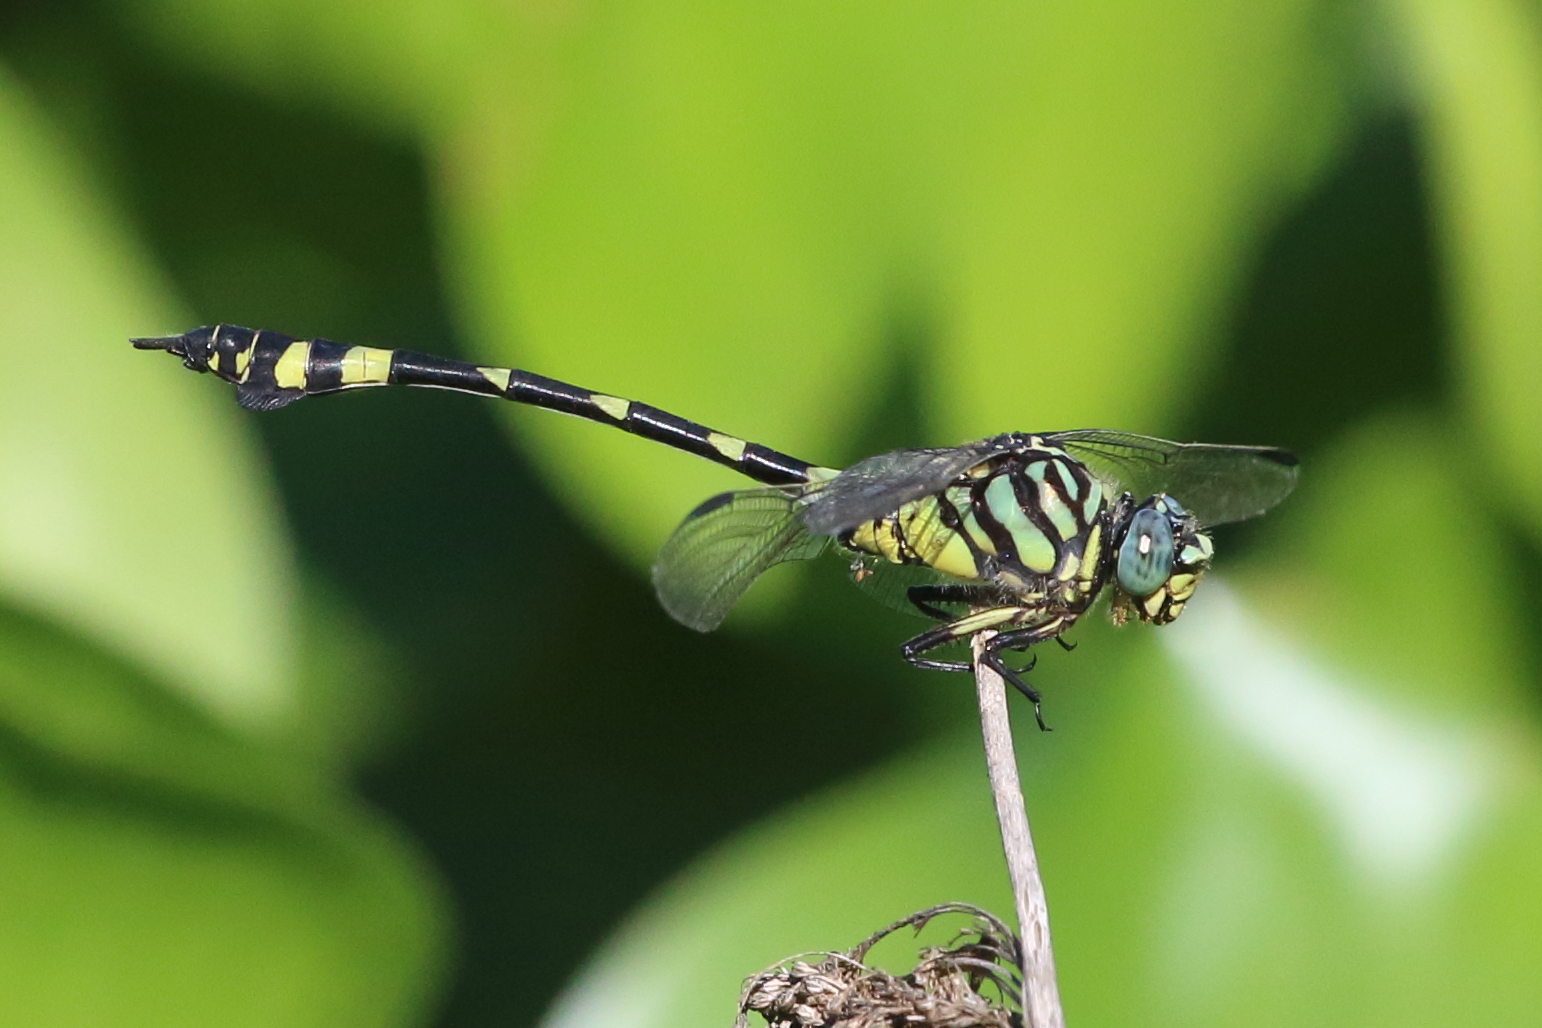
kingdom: Animalia
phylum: Arthropoda
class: Insecta
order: Odonata
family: Gomphidae
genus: Ictinogomphus
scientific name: Ictinogomphus australis
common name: Australian tiger
